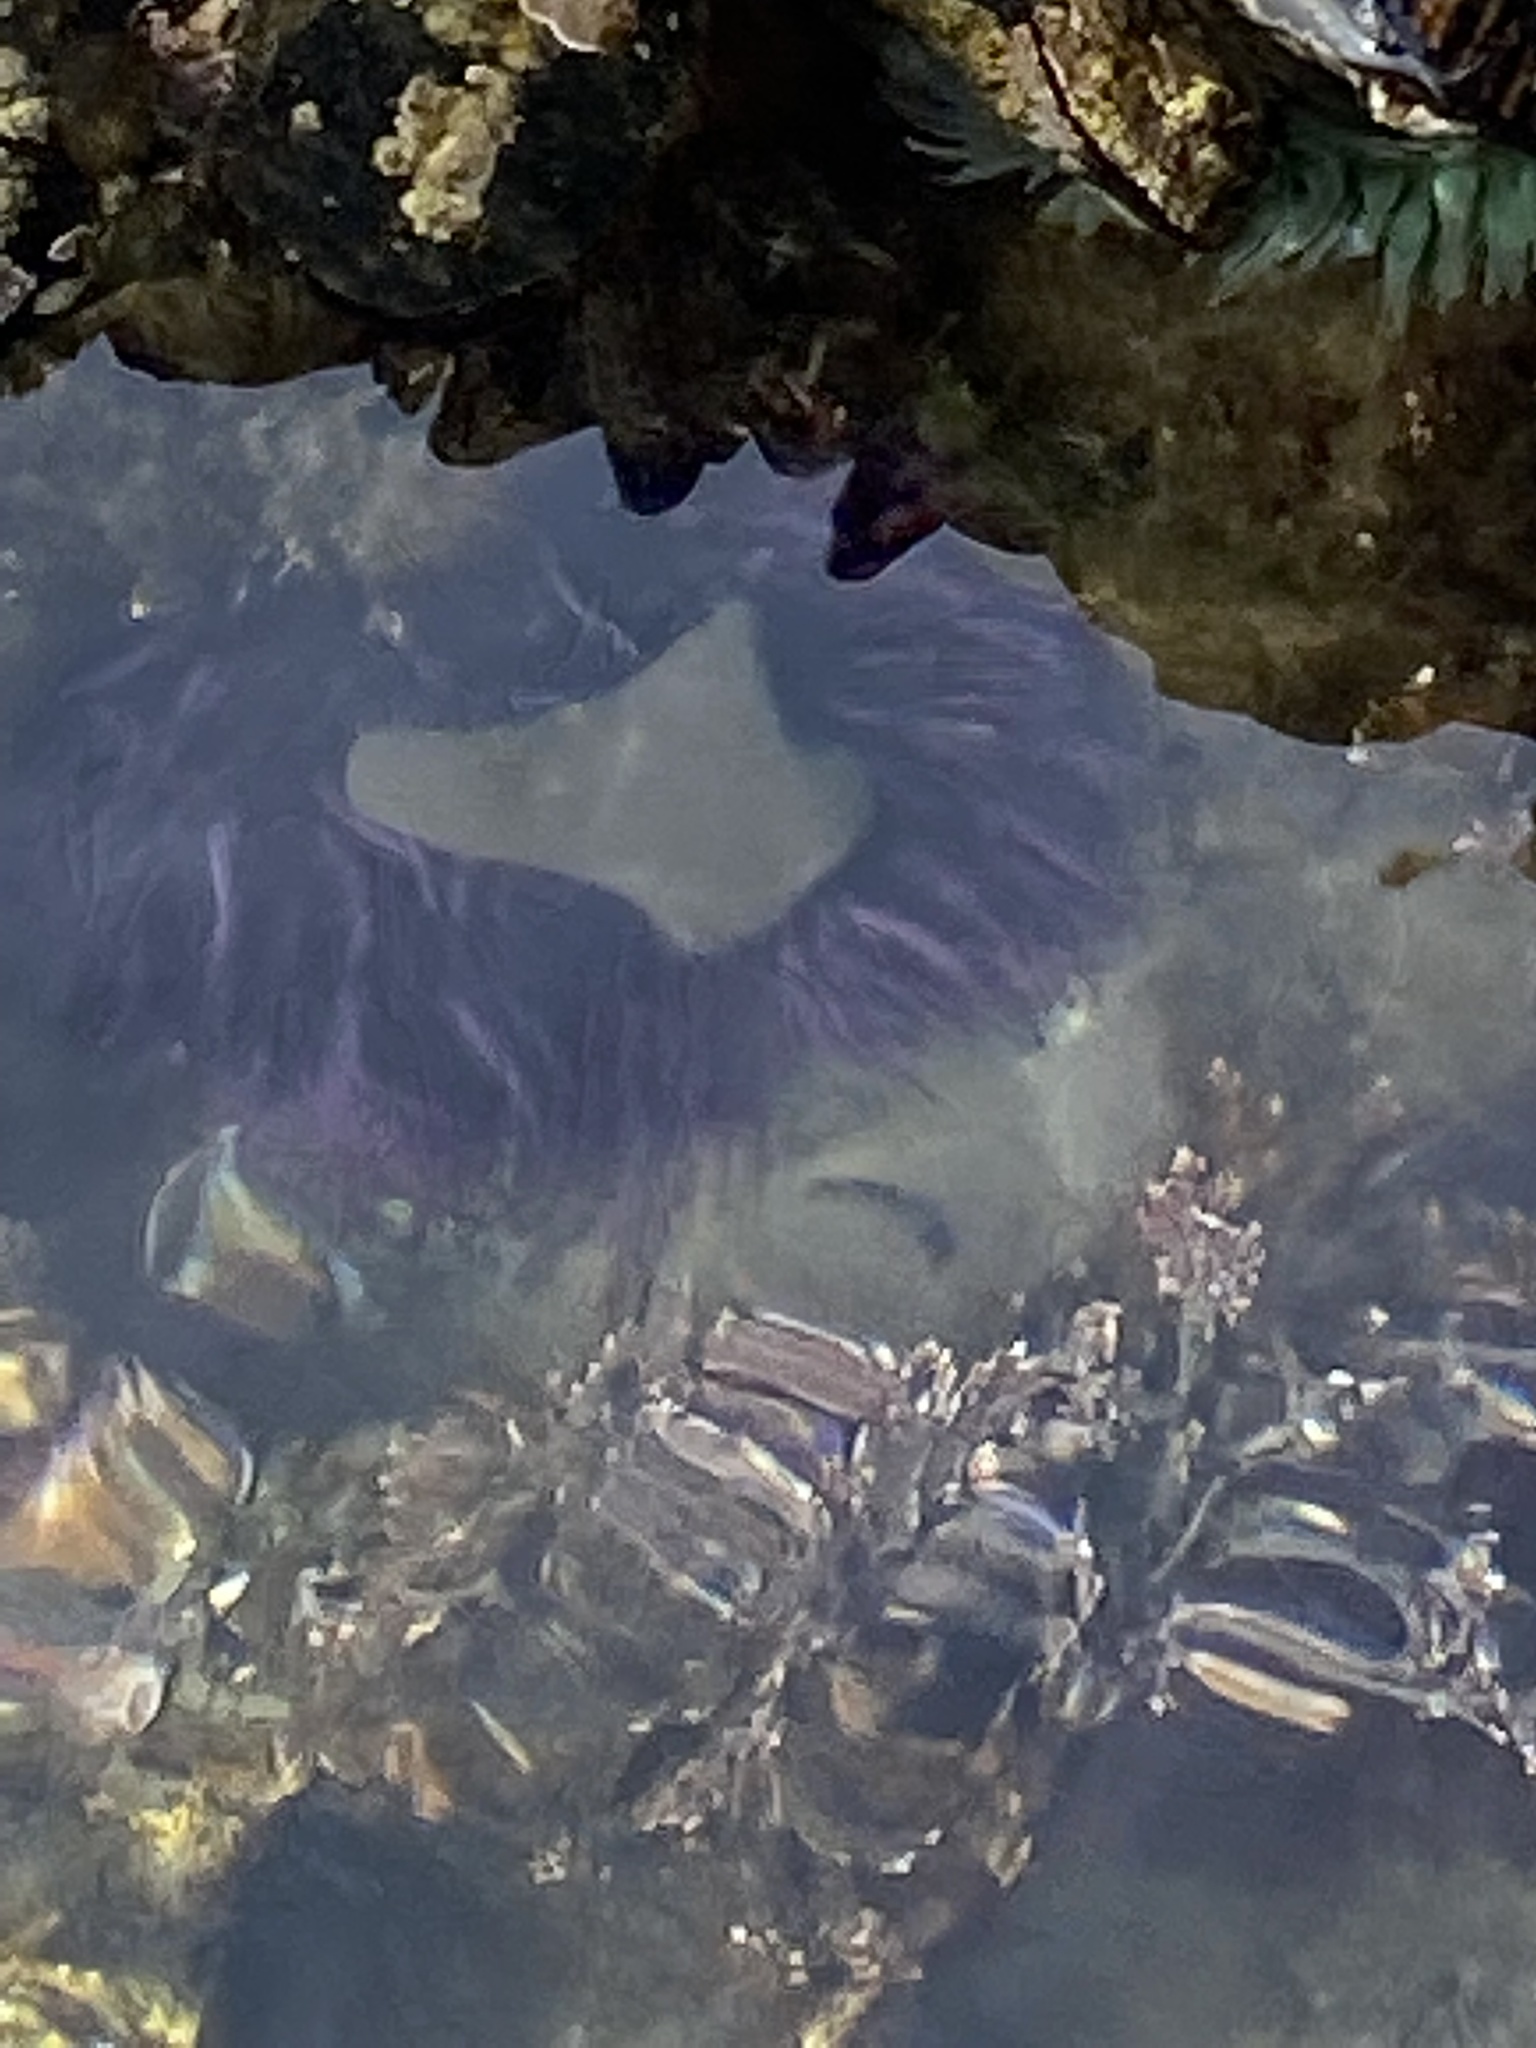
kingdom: Animalia
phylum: Echinodermata
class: Echinoidea
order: Camarodonta
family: Strongylocentrotidae
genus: Strongylocentrotus
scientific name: Strongylocentrotus purpuratus
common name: Purple sea urchin
